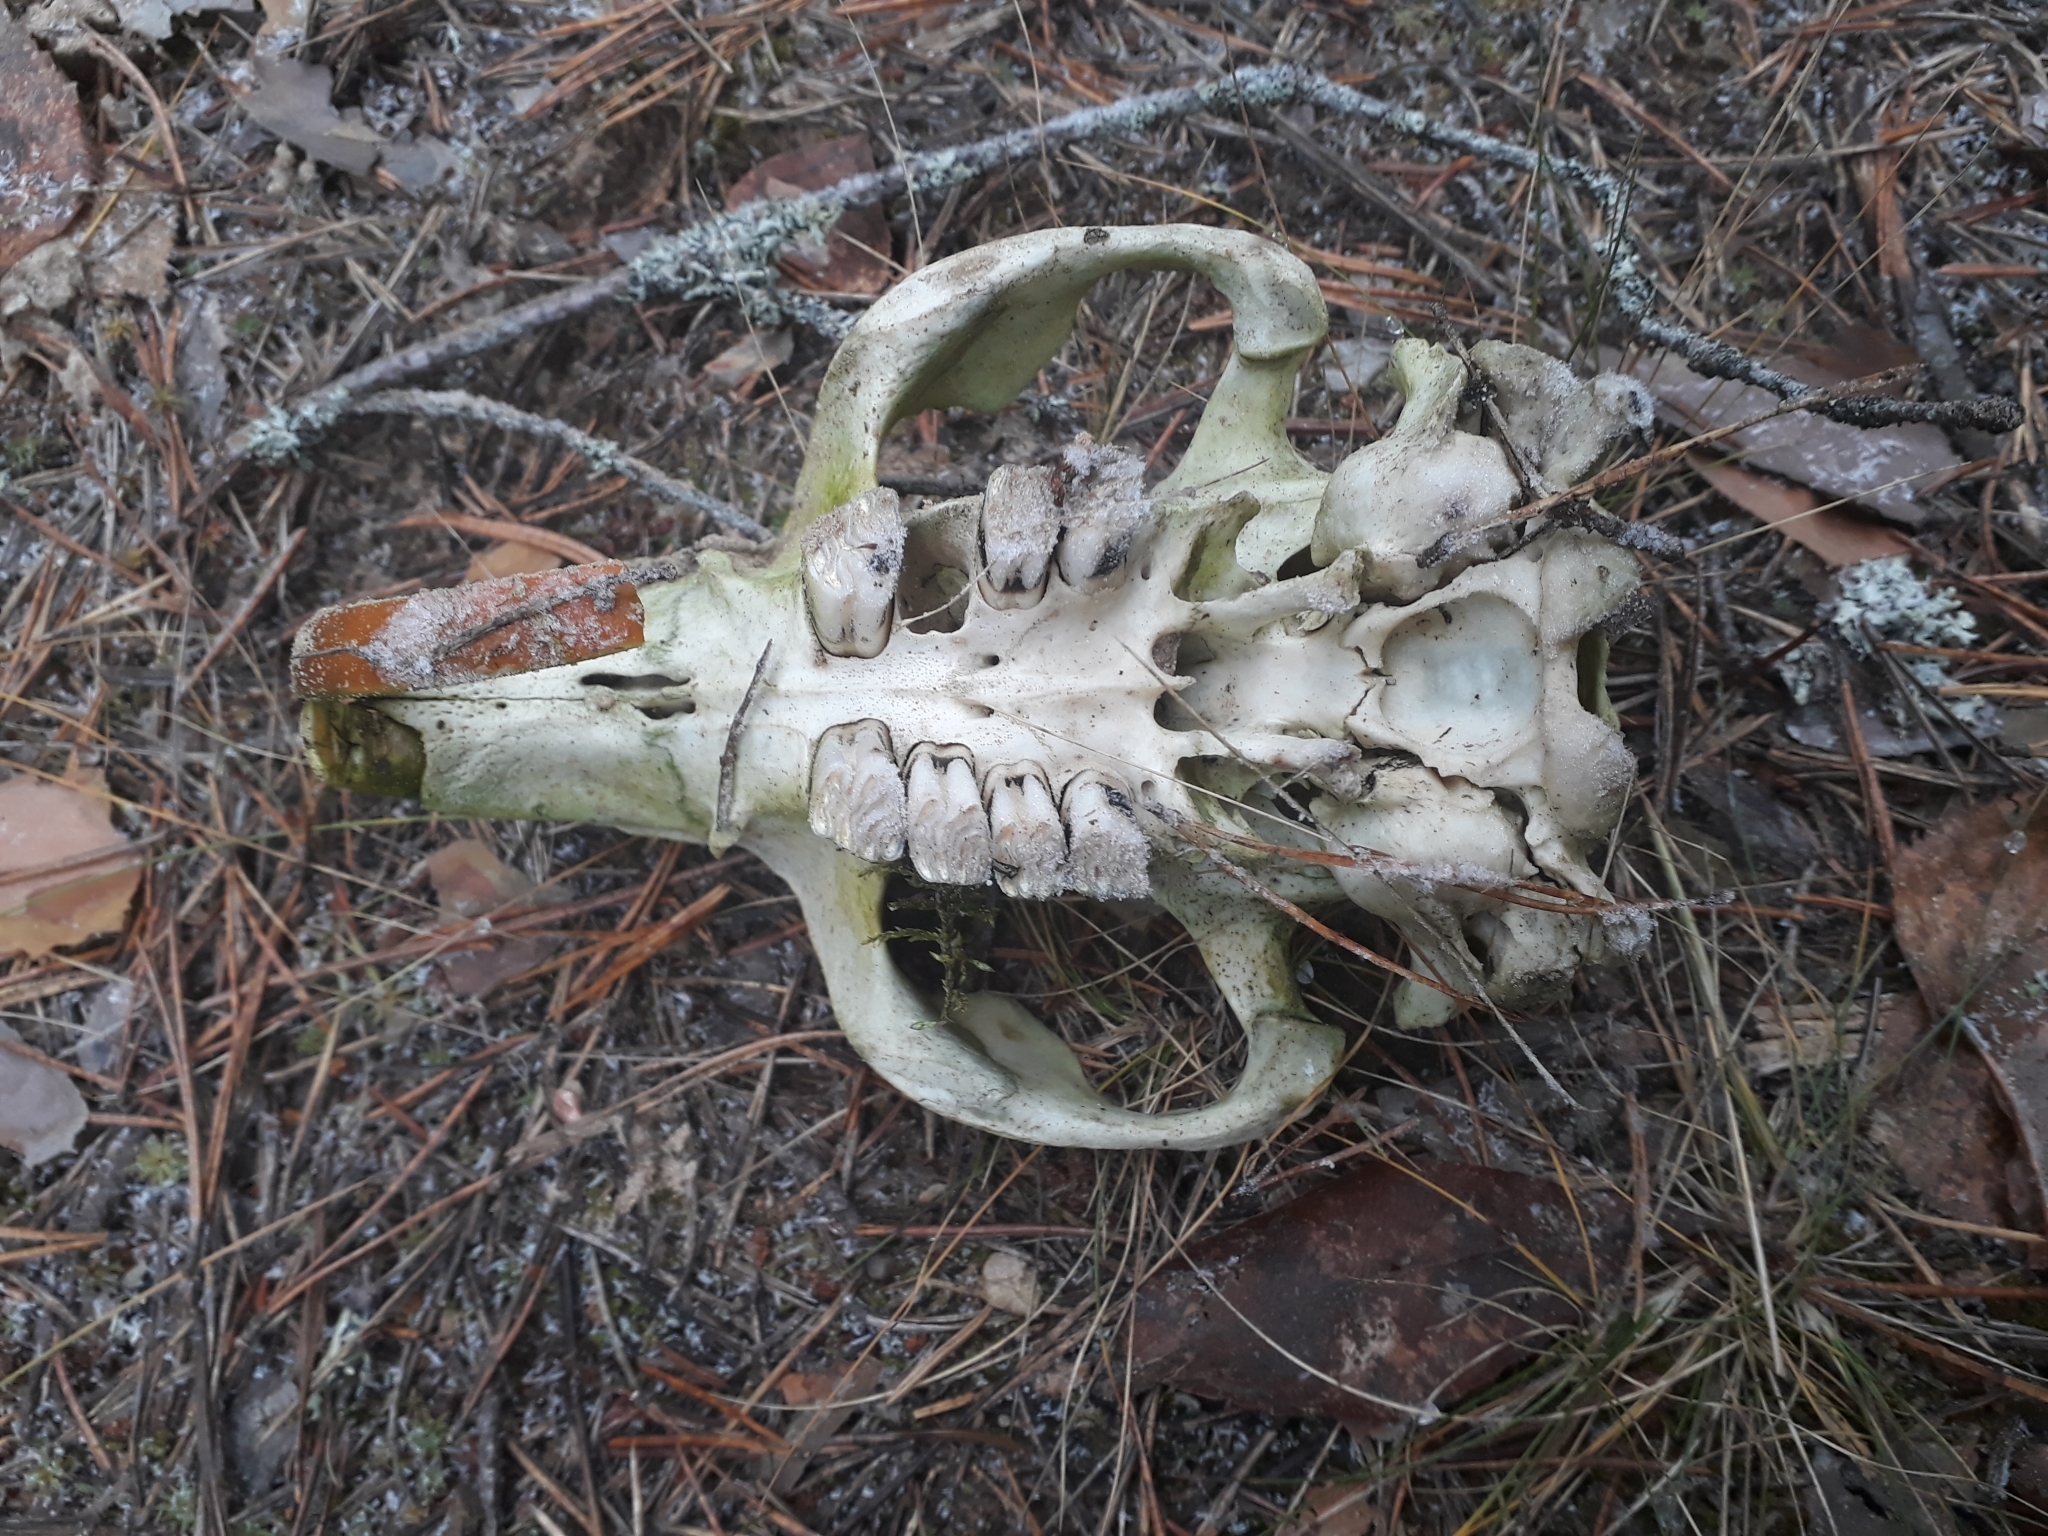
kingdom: Animalia
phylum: Chordata
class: Mammalia
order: Rodentia
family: Castoridae
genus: Castor
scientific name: Castor fiber
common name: Eurasian beaver
